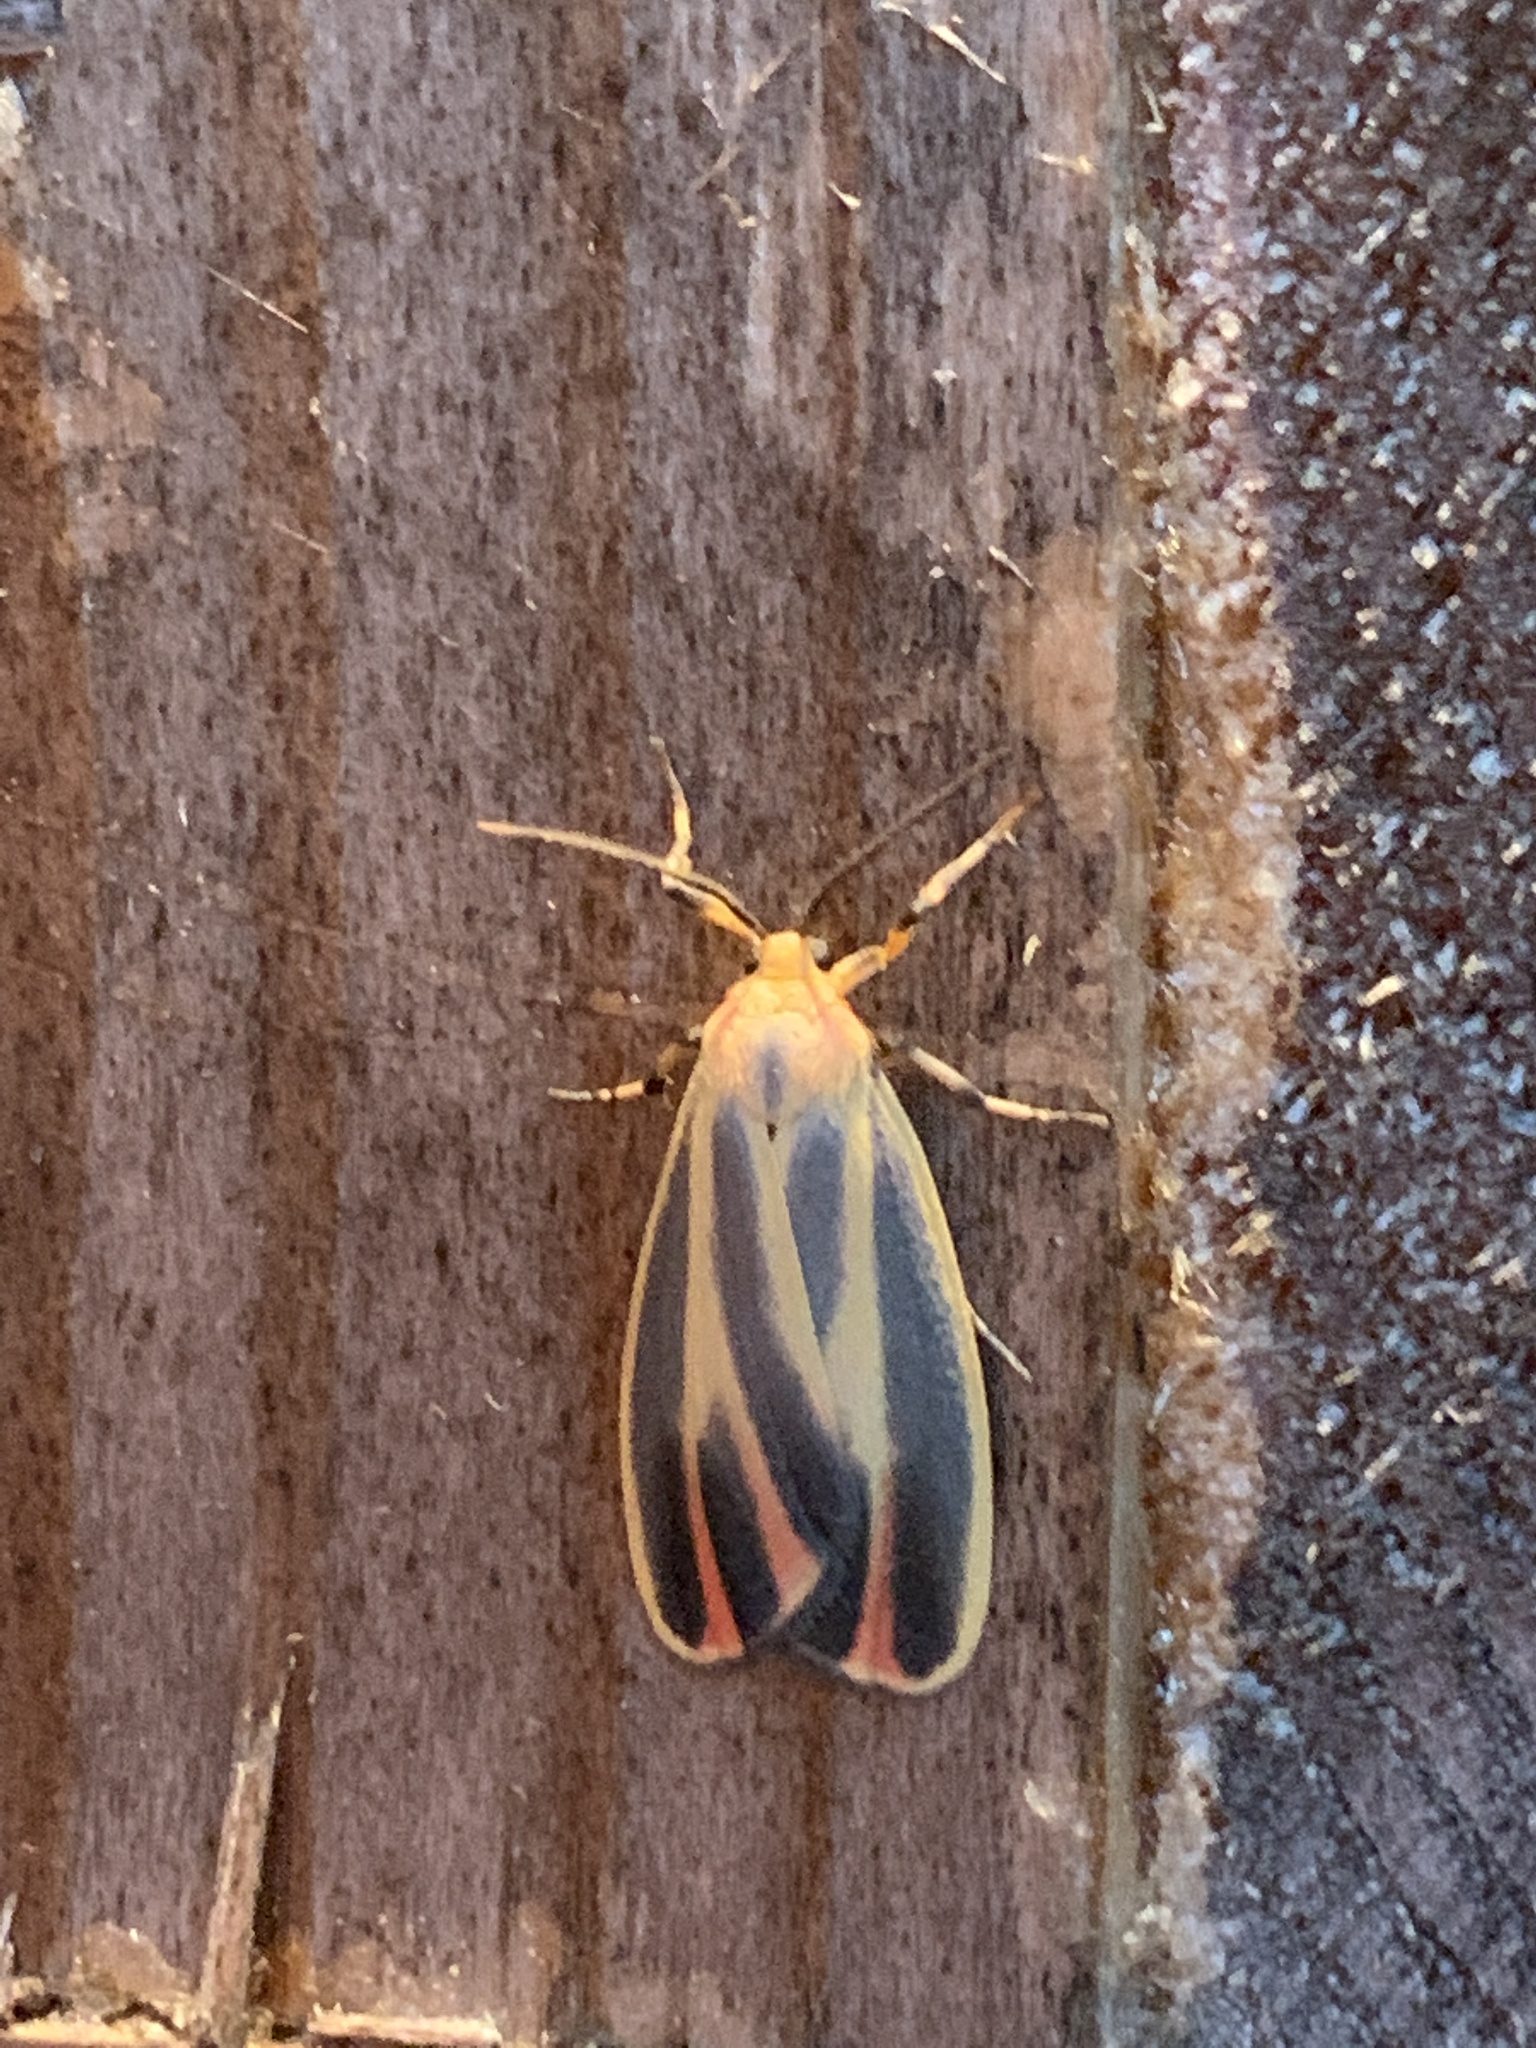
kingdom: Animalia
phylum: Arthropoda
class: Insecta
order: Lepidoptera
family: Erebidae
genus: Hypoprepia
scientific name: Hypoprepia fucosa
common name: Painted lichen moth
